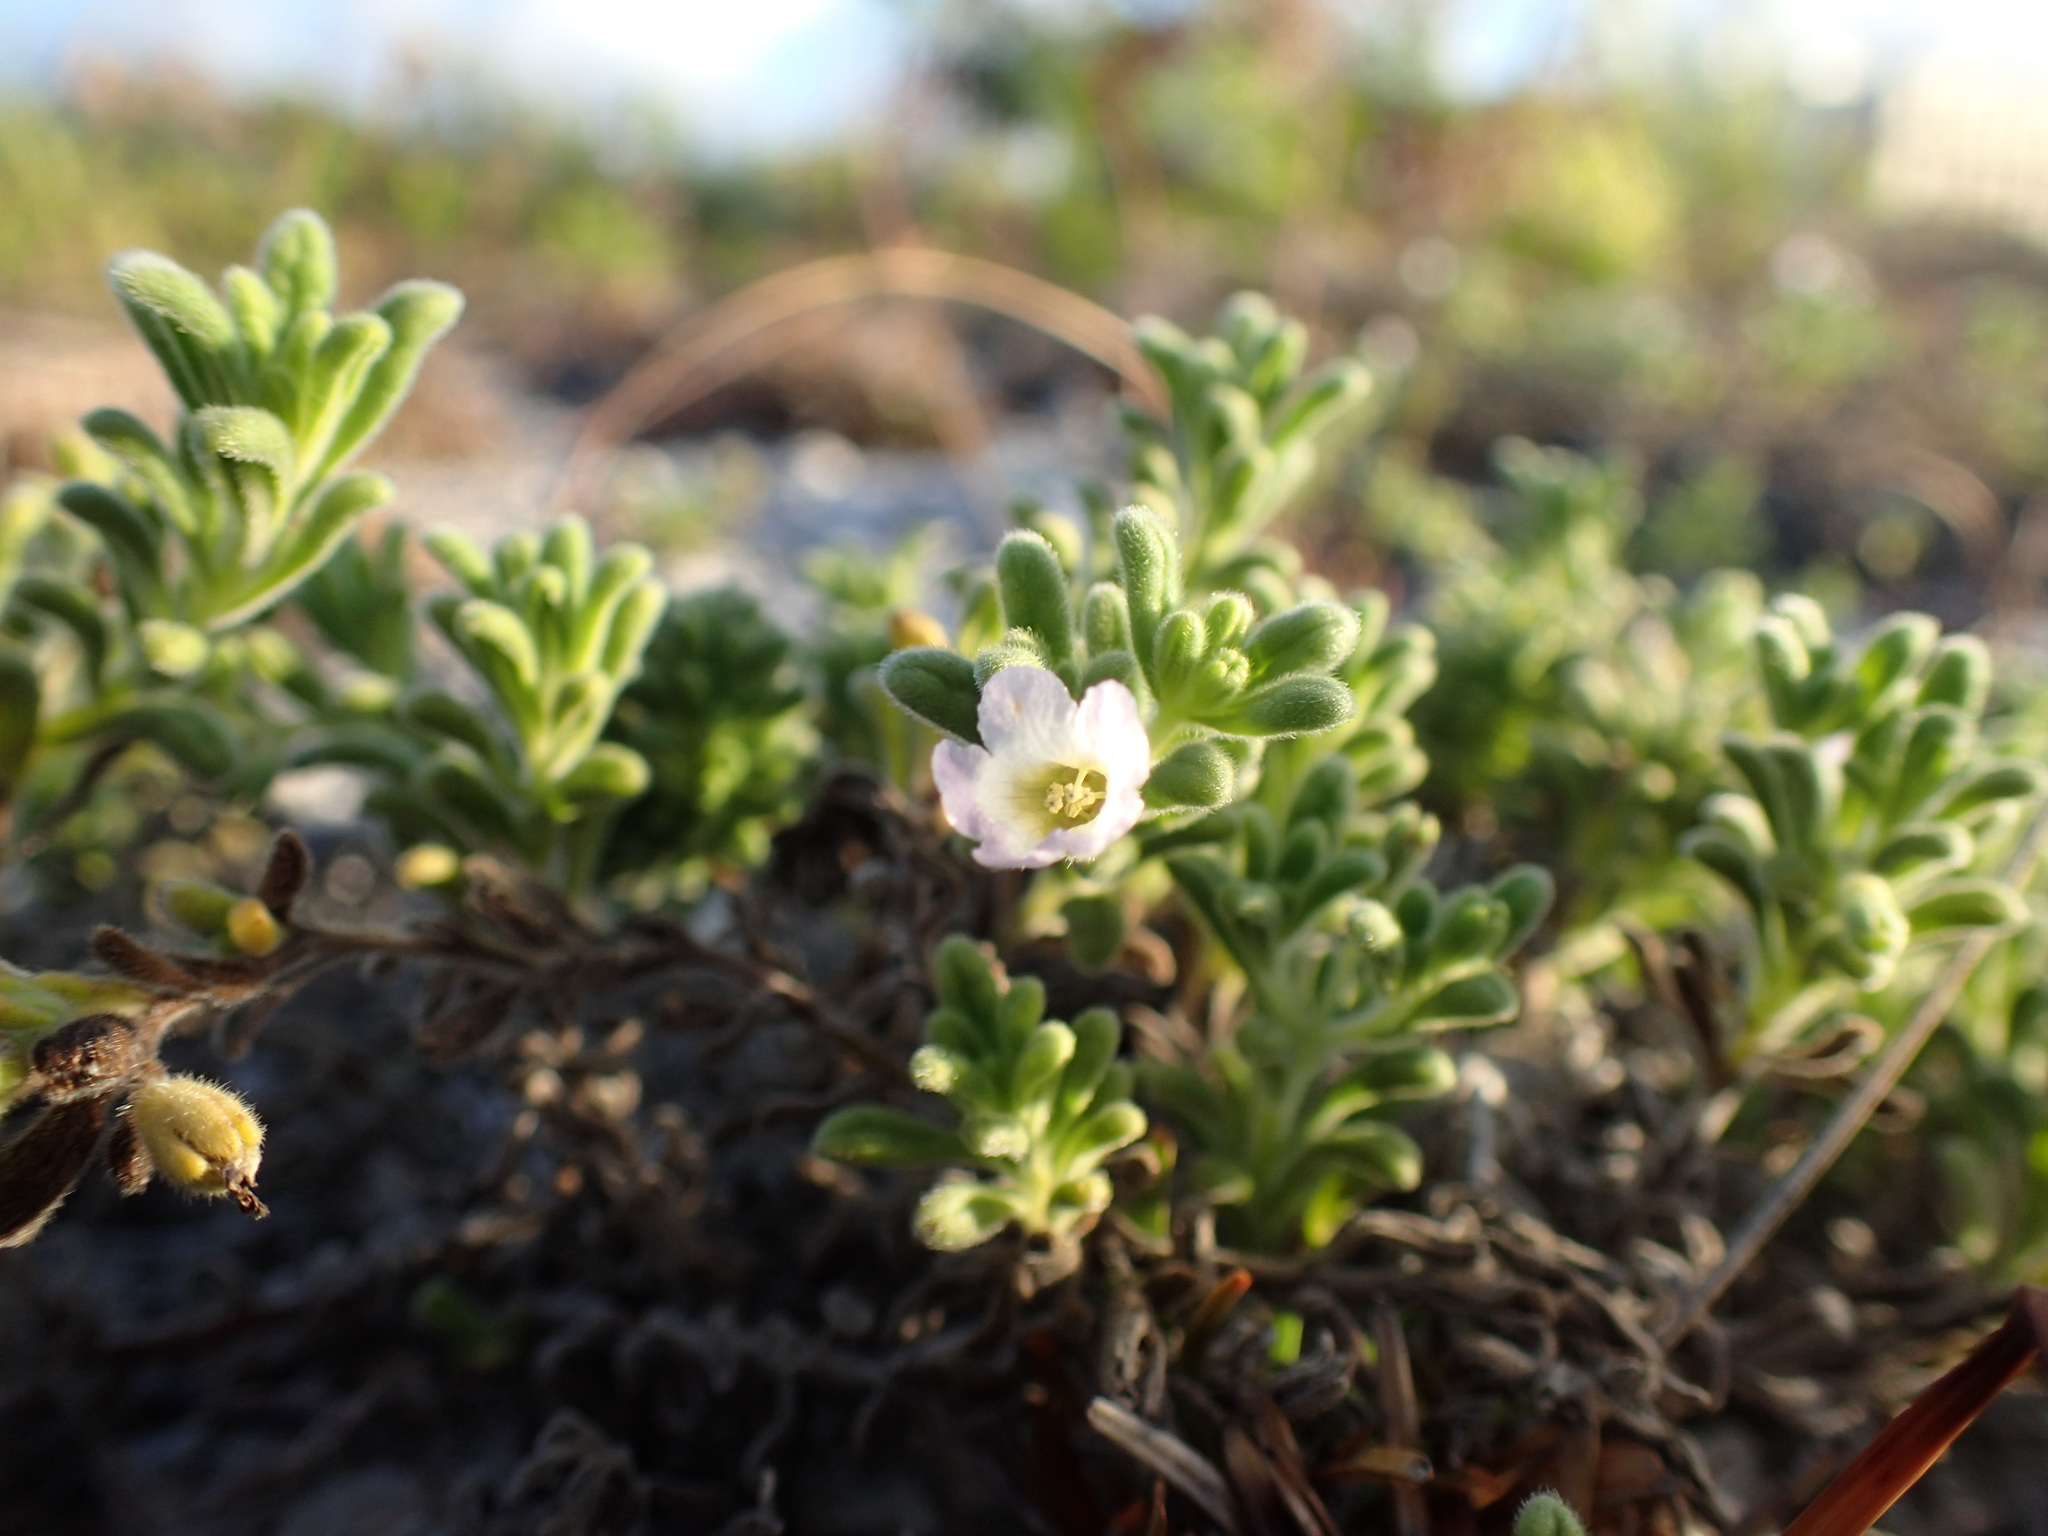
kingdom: Plantae
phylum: Tracheophyta
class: Magnoliopsida
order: Boraginales
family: Namaceae
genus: Nama
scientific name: Nama sandwicense
